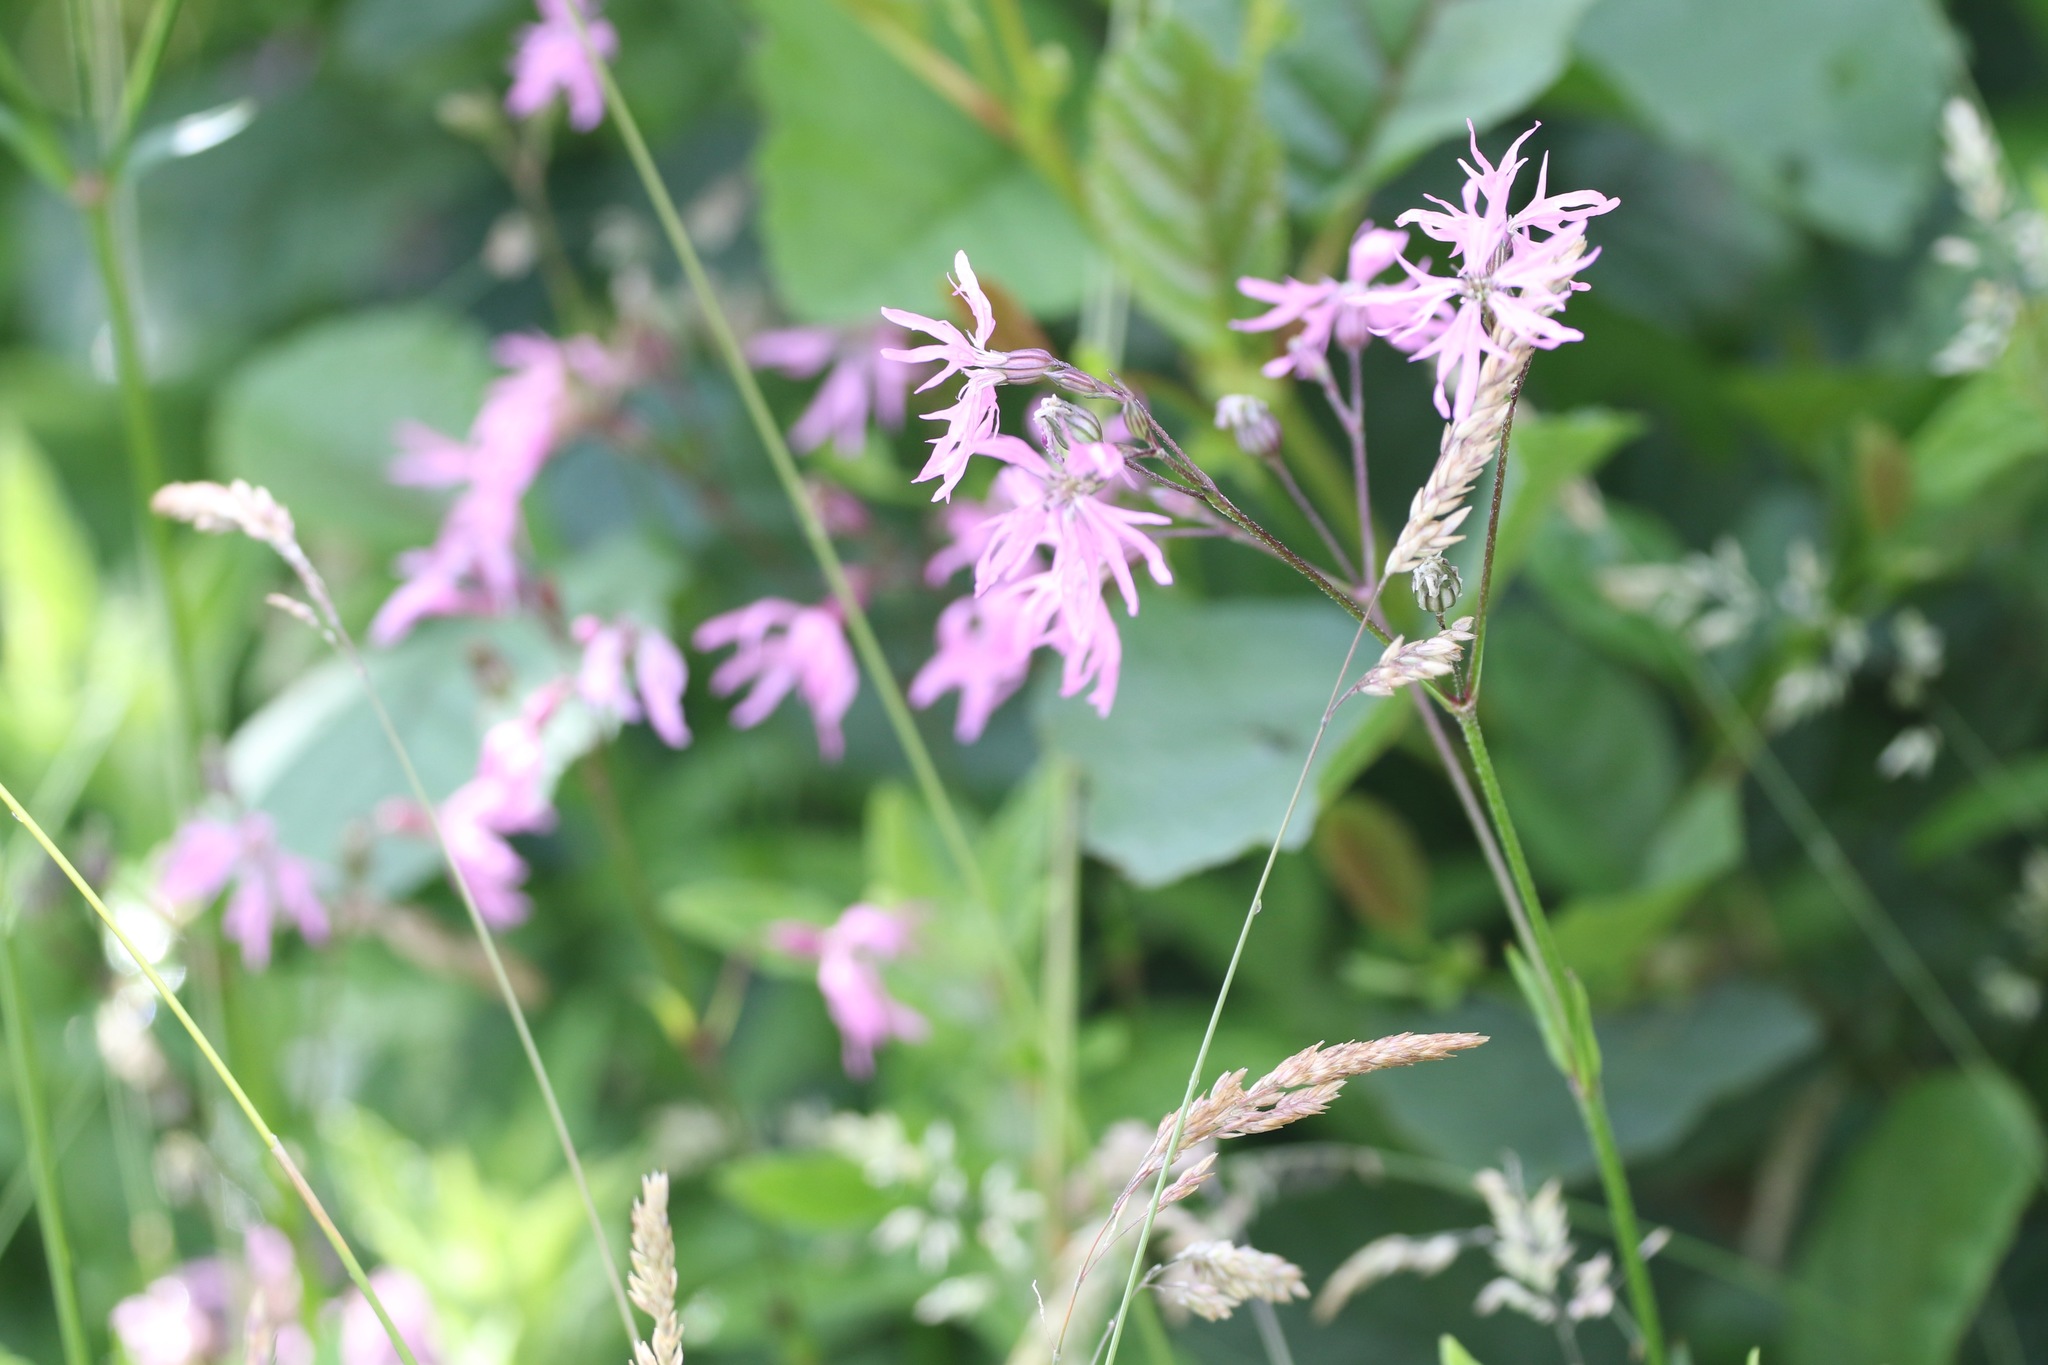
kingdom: Plantae
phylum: Tracheophyta
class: Magnoliopsida
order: Caryophyllales
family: Caryophyllaceae
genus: Silene
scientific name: Silene flos-cuculi
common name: Ragged-robin
